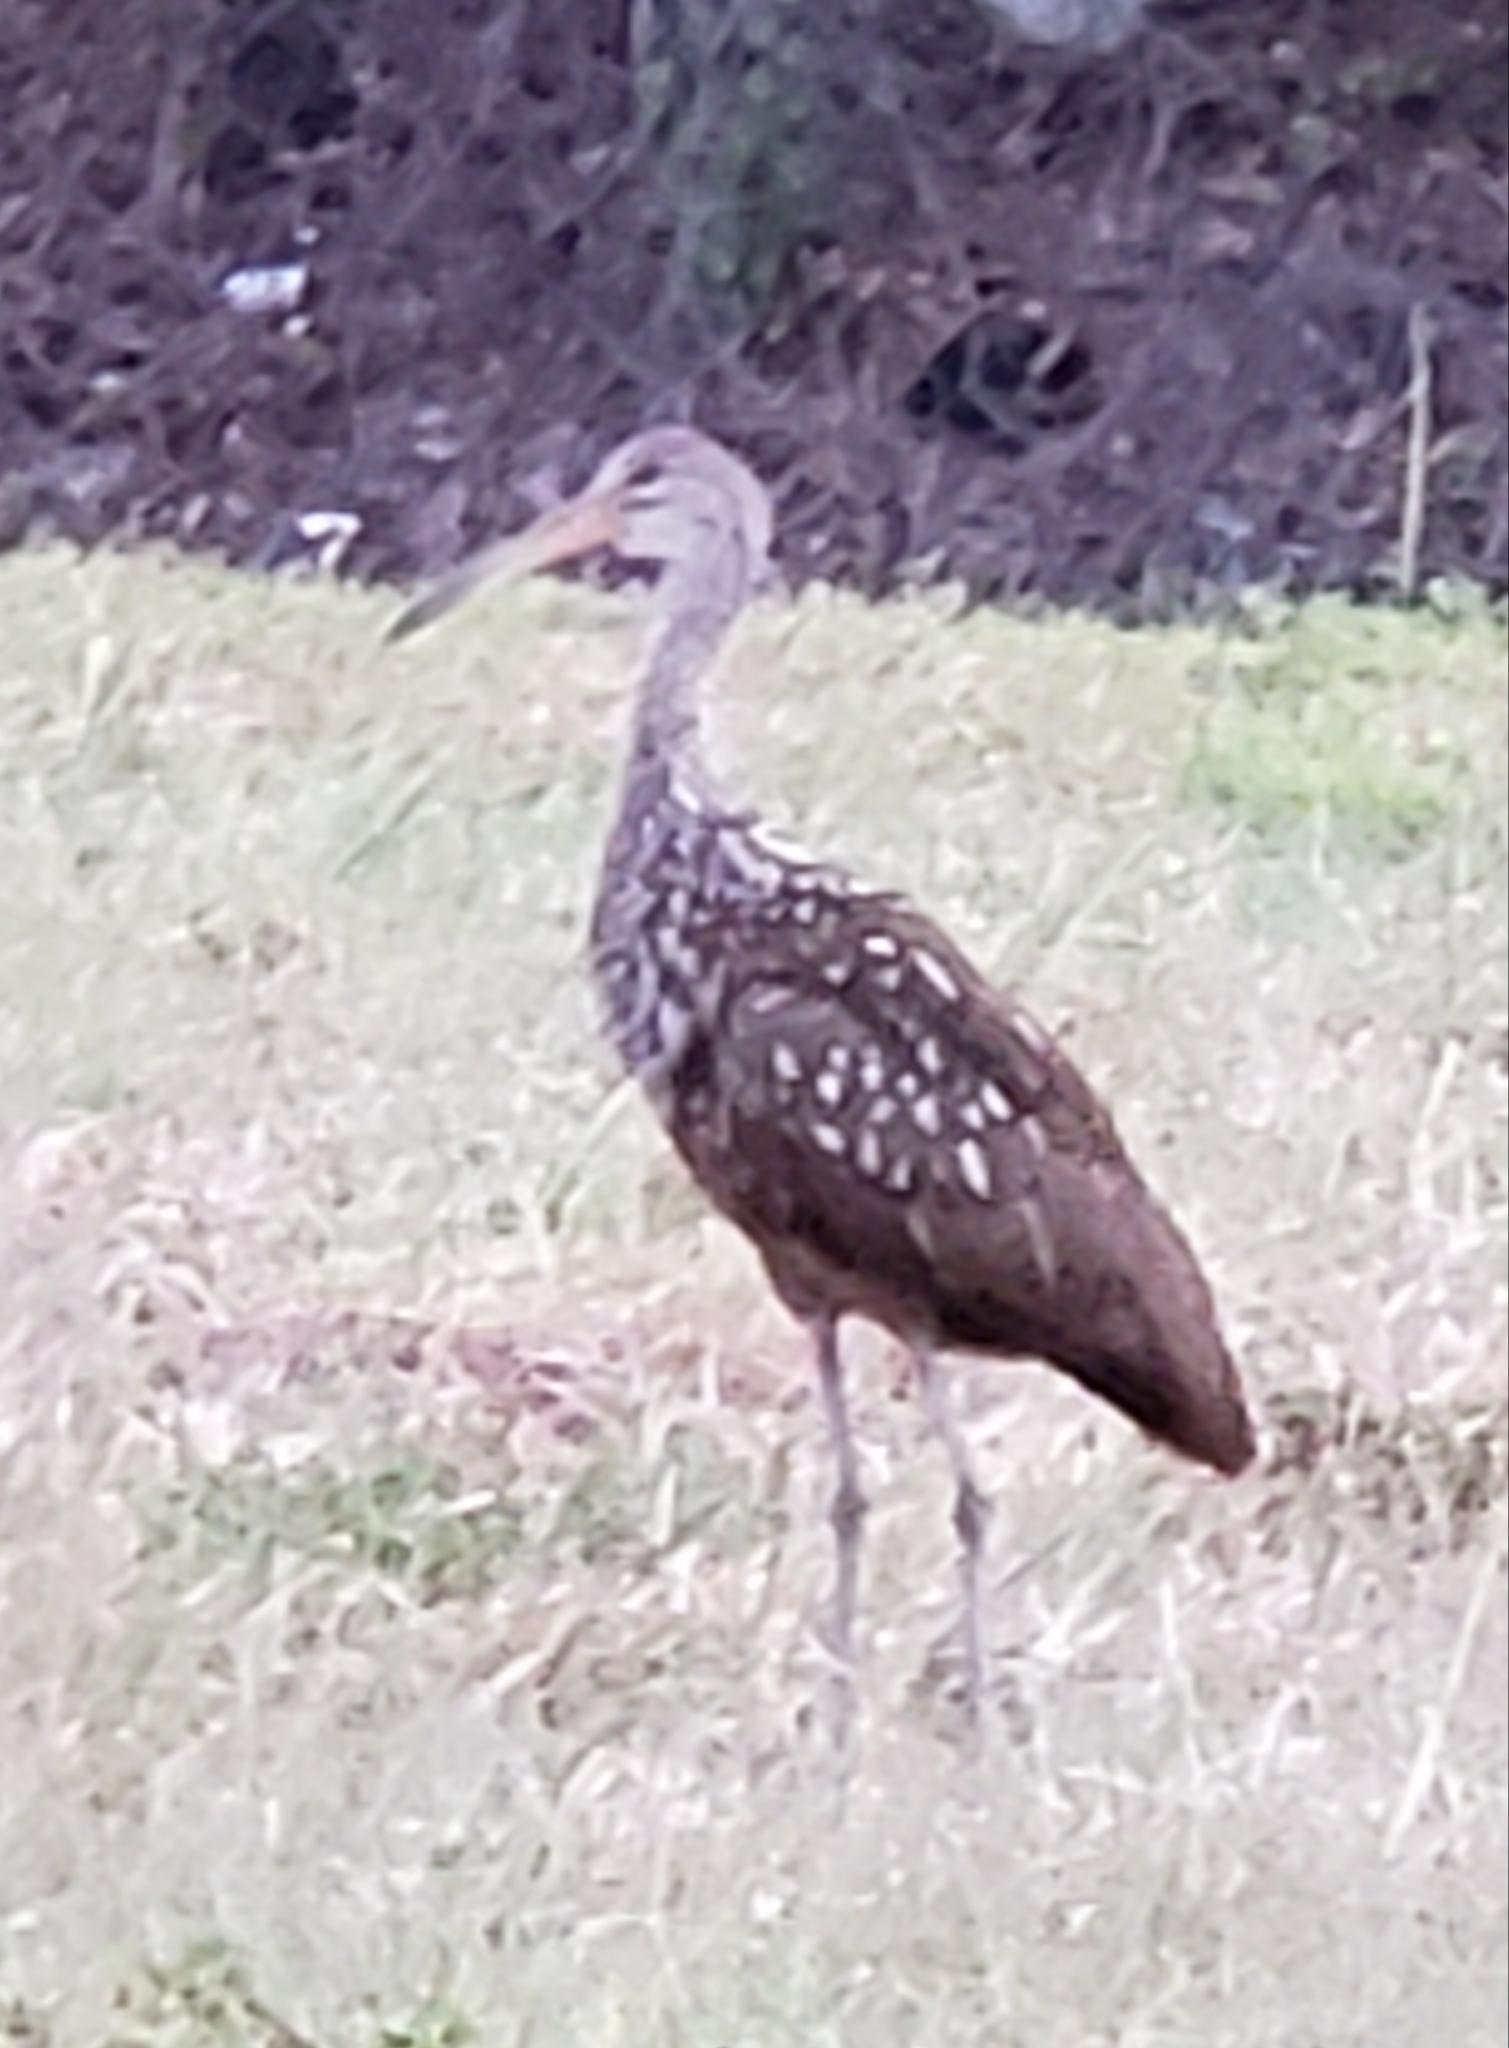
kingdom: Animalia
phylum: Chordata
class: Aves
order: Gruiformes
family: Aramidae
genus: Aramus
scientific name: Aramus guarauna
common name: Limpkin
